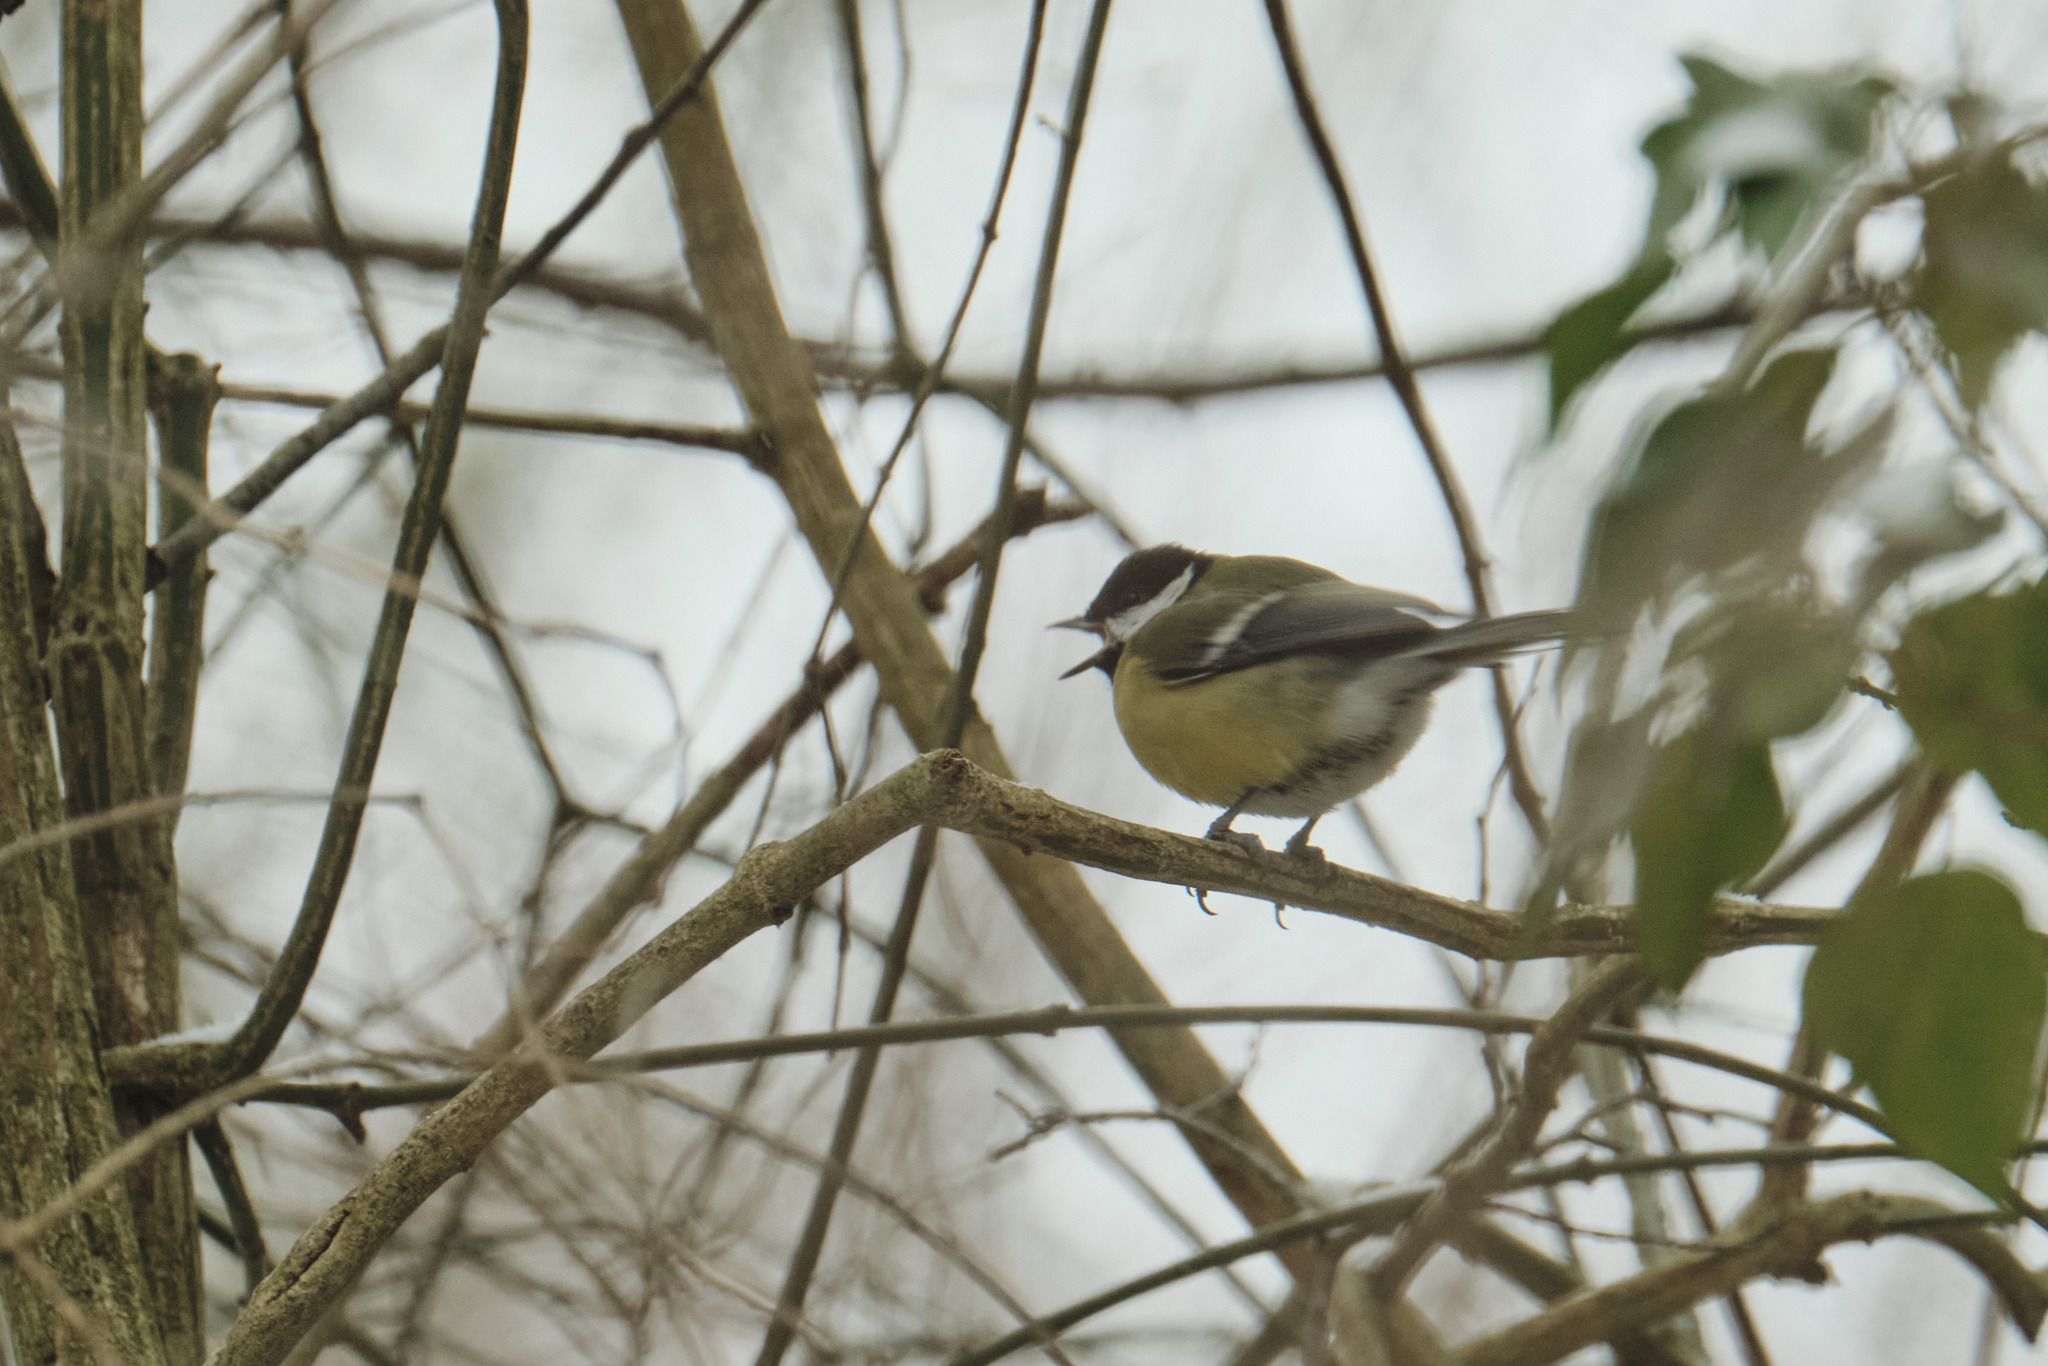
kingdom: Animalia
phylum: Chordata
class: Aves
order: Passeriformes
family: Paridae
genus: Parus
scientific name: Parus major
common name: Great tit
